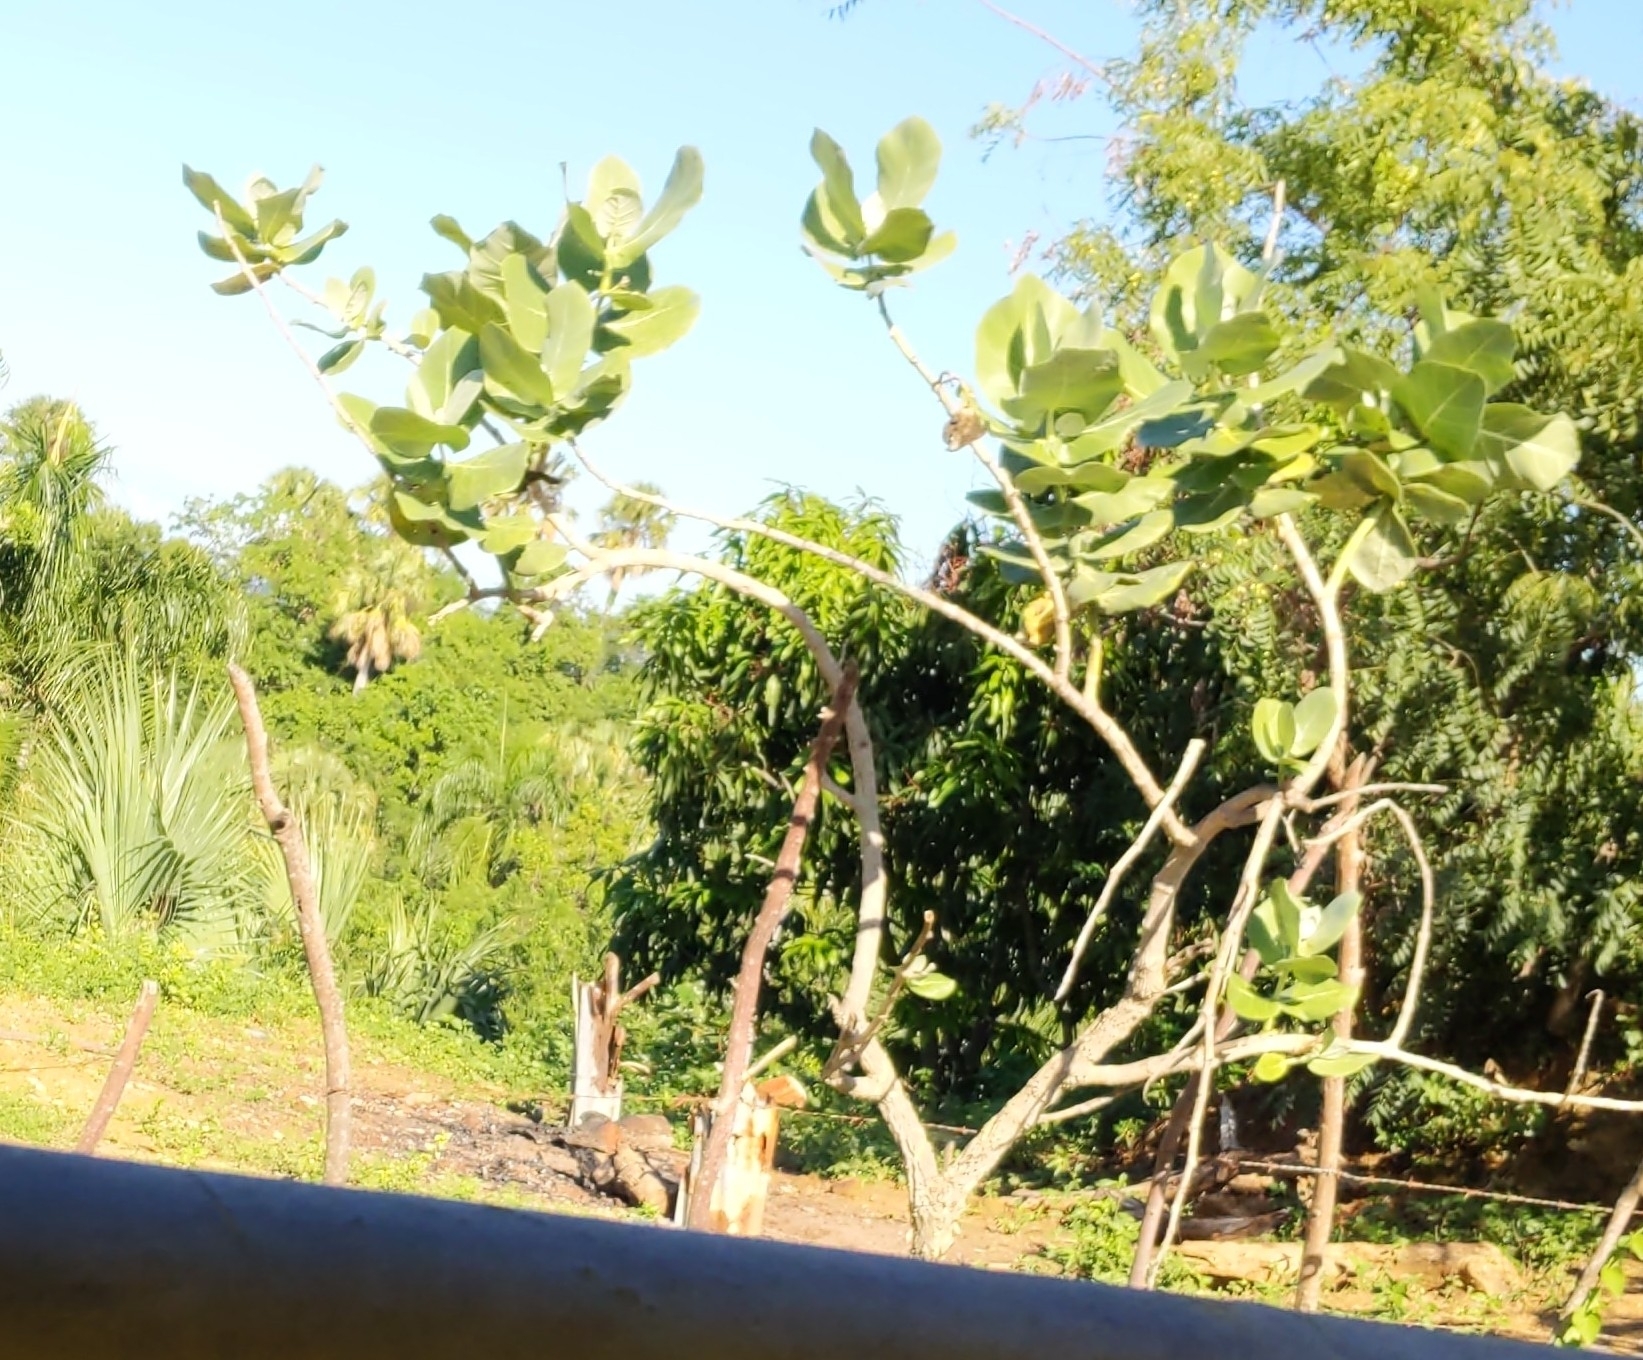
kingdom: Plantae
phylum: Tracheophyta
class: Magnoliopsida
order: Gentianales
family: Apocynaceae
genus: Calotropis
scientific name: Calotropis procera
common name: Roostertree
